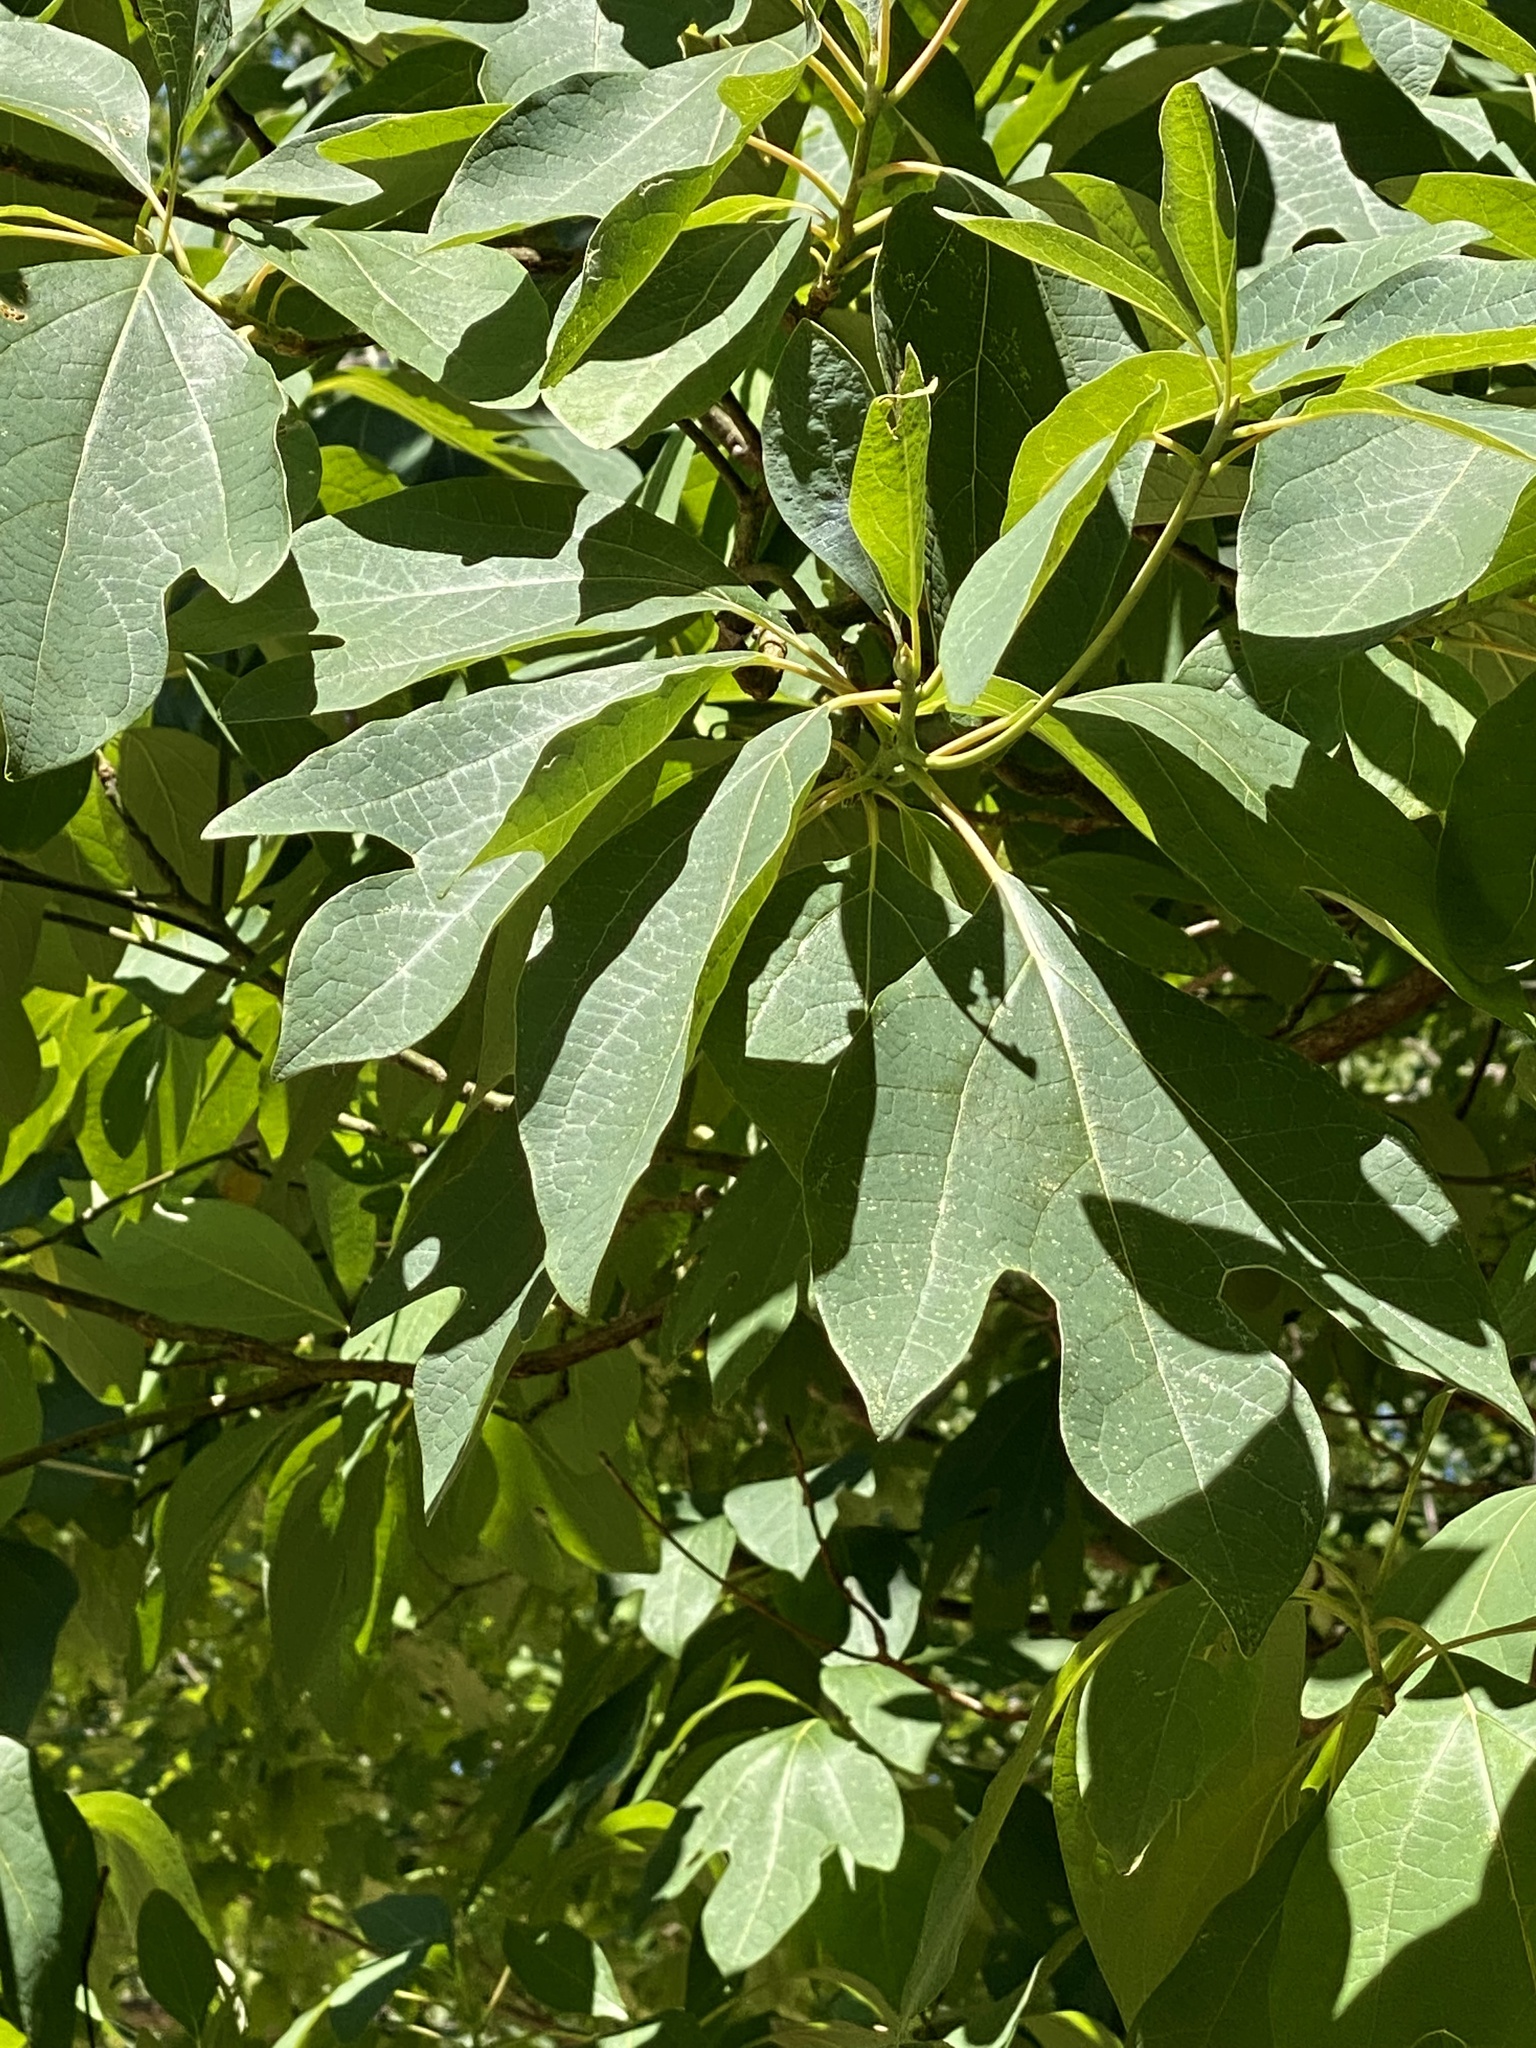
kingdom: Plantae
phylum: Tracheophyta
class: Magnoliopsida
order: Laurales
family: Lauraceae
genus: Sassafras
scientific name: Sassafras albidum
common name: Sassafras
